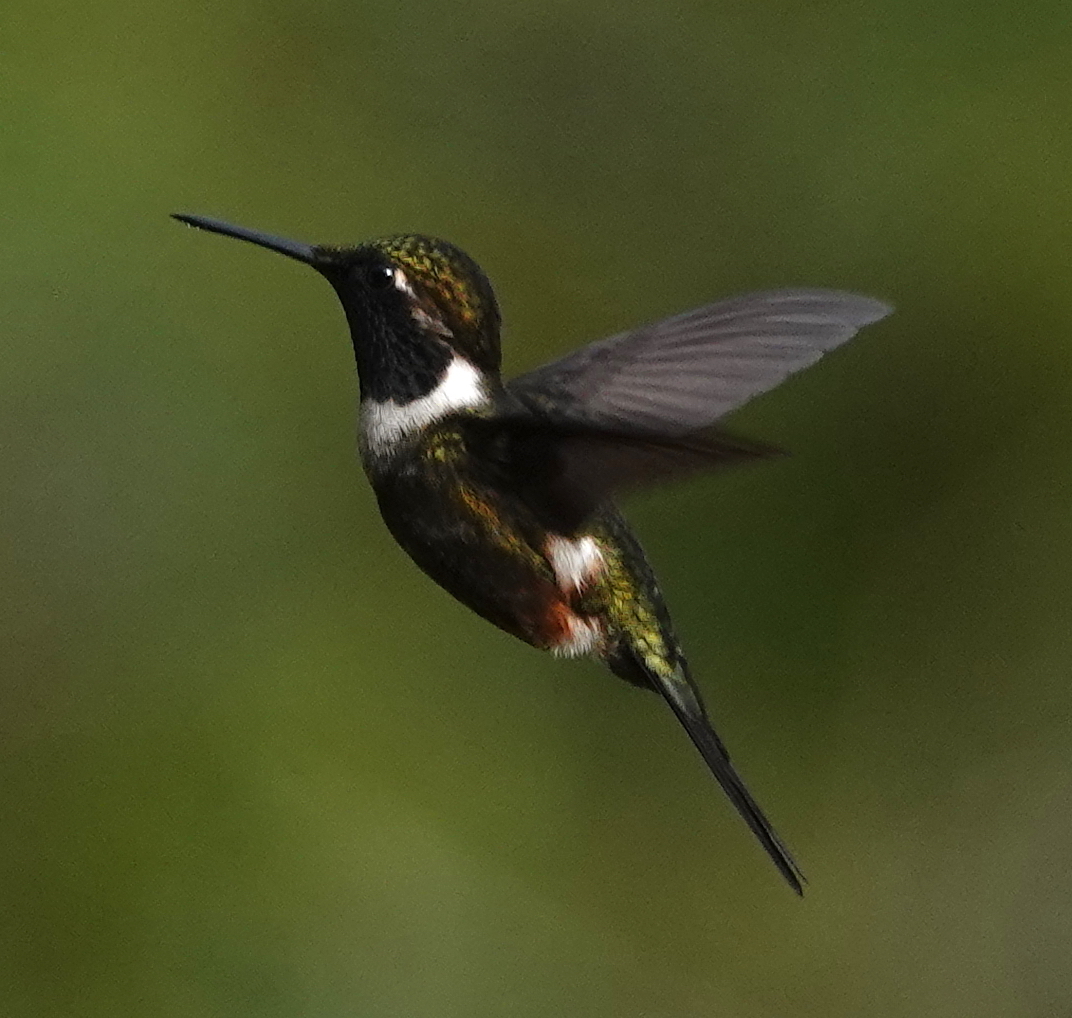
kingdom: Animalia
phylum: Chordata
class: Aves
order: Apodiformes
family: Trochilidae
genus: Calliphlox
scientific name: Calliphlox mitchellii
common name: Purple-throated woodstar
